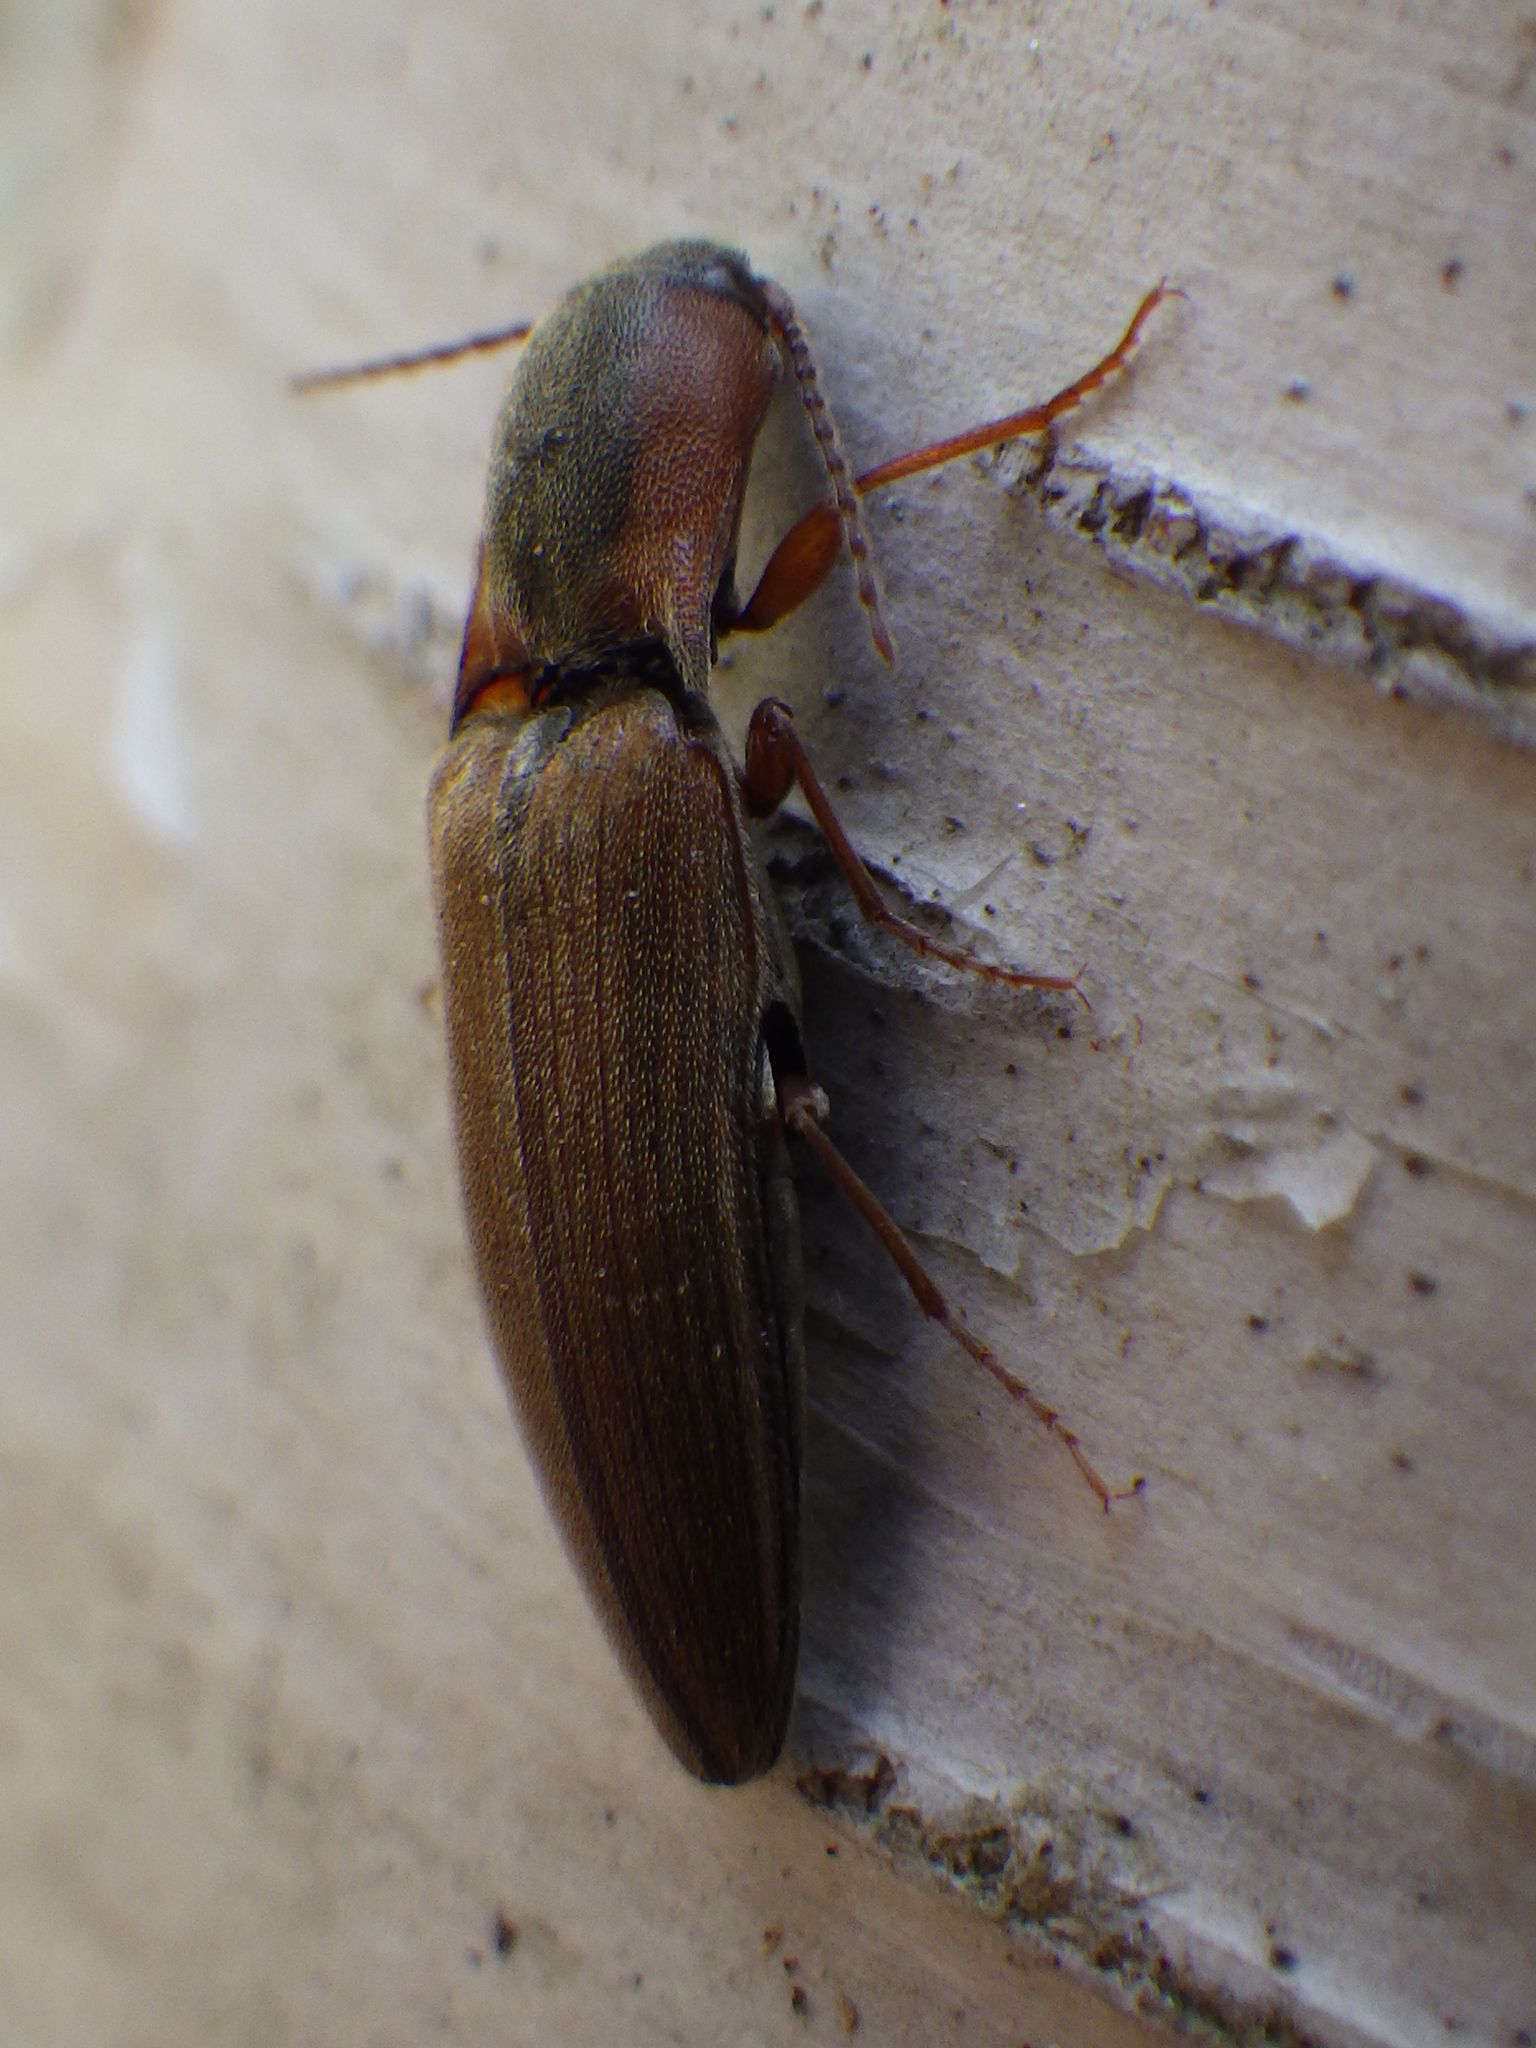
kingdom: Animalia
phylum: Arthropoda
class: Insecta
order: Coleoptera
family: Elateridae
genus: Agriotes
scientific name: Agriotes collaris
